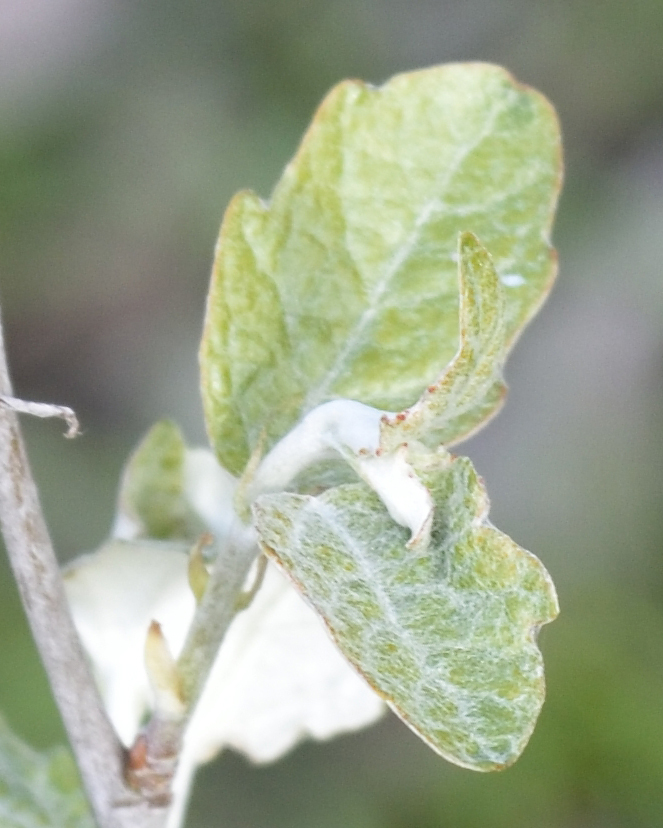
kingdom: Plantae
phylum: Tracheophyta
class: Magnoliopsida
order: Malpighiales
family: Salicaceae
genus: Populus
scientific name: Populus alba
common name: White poplar
